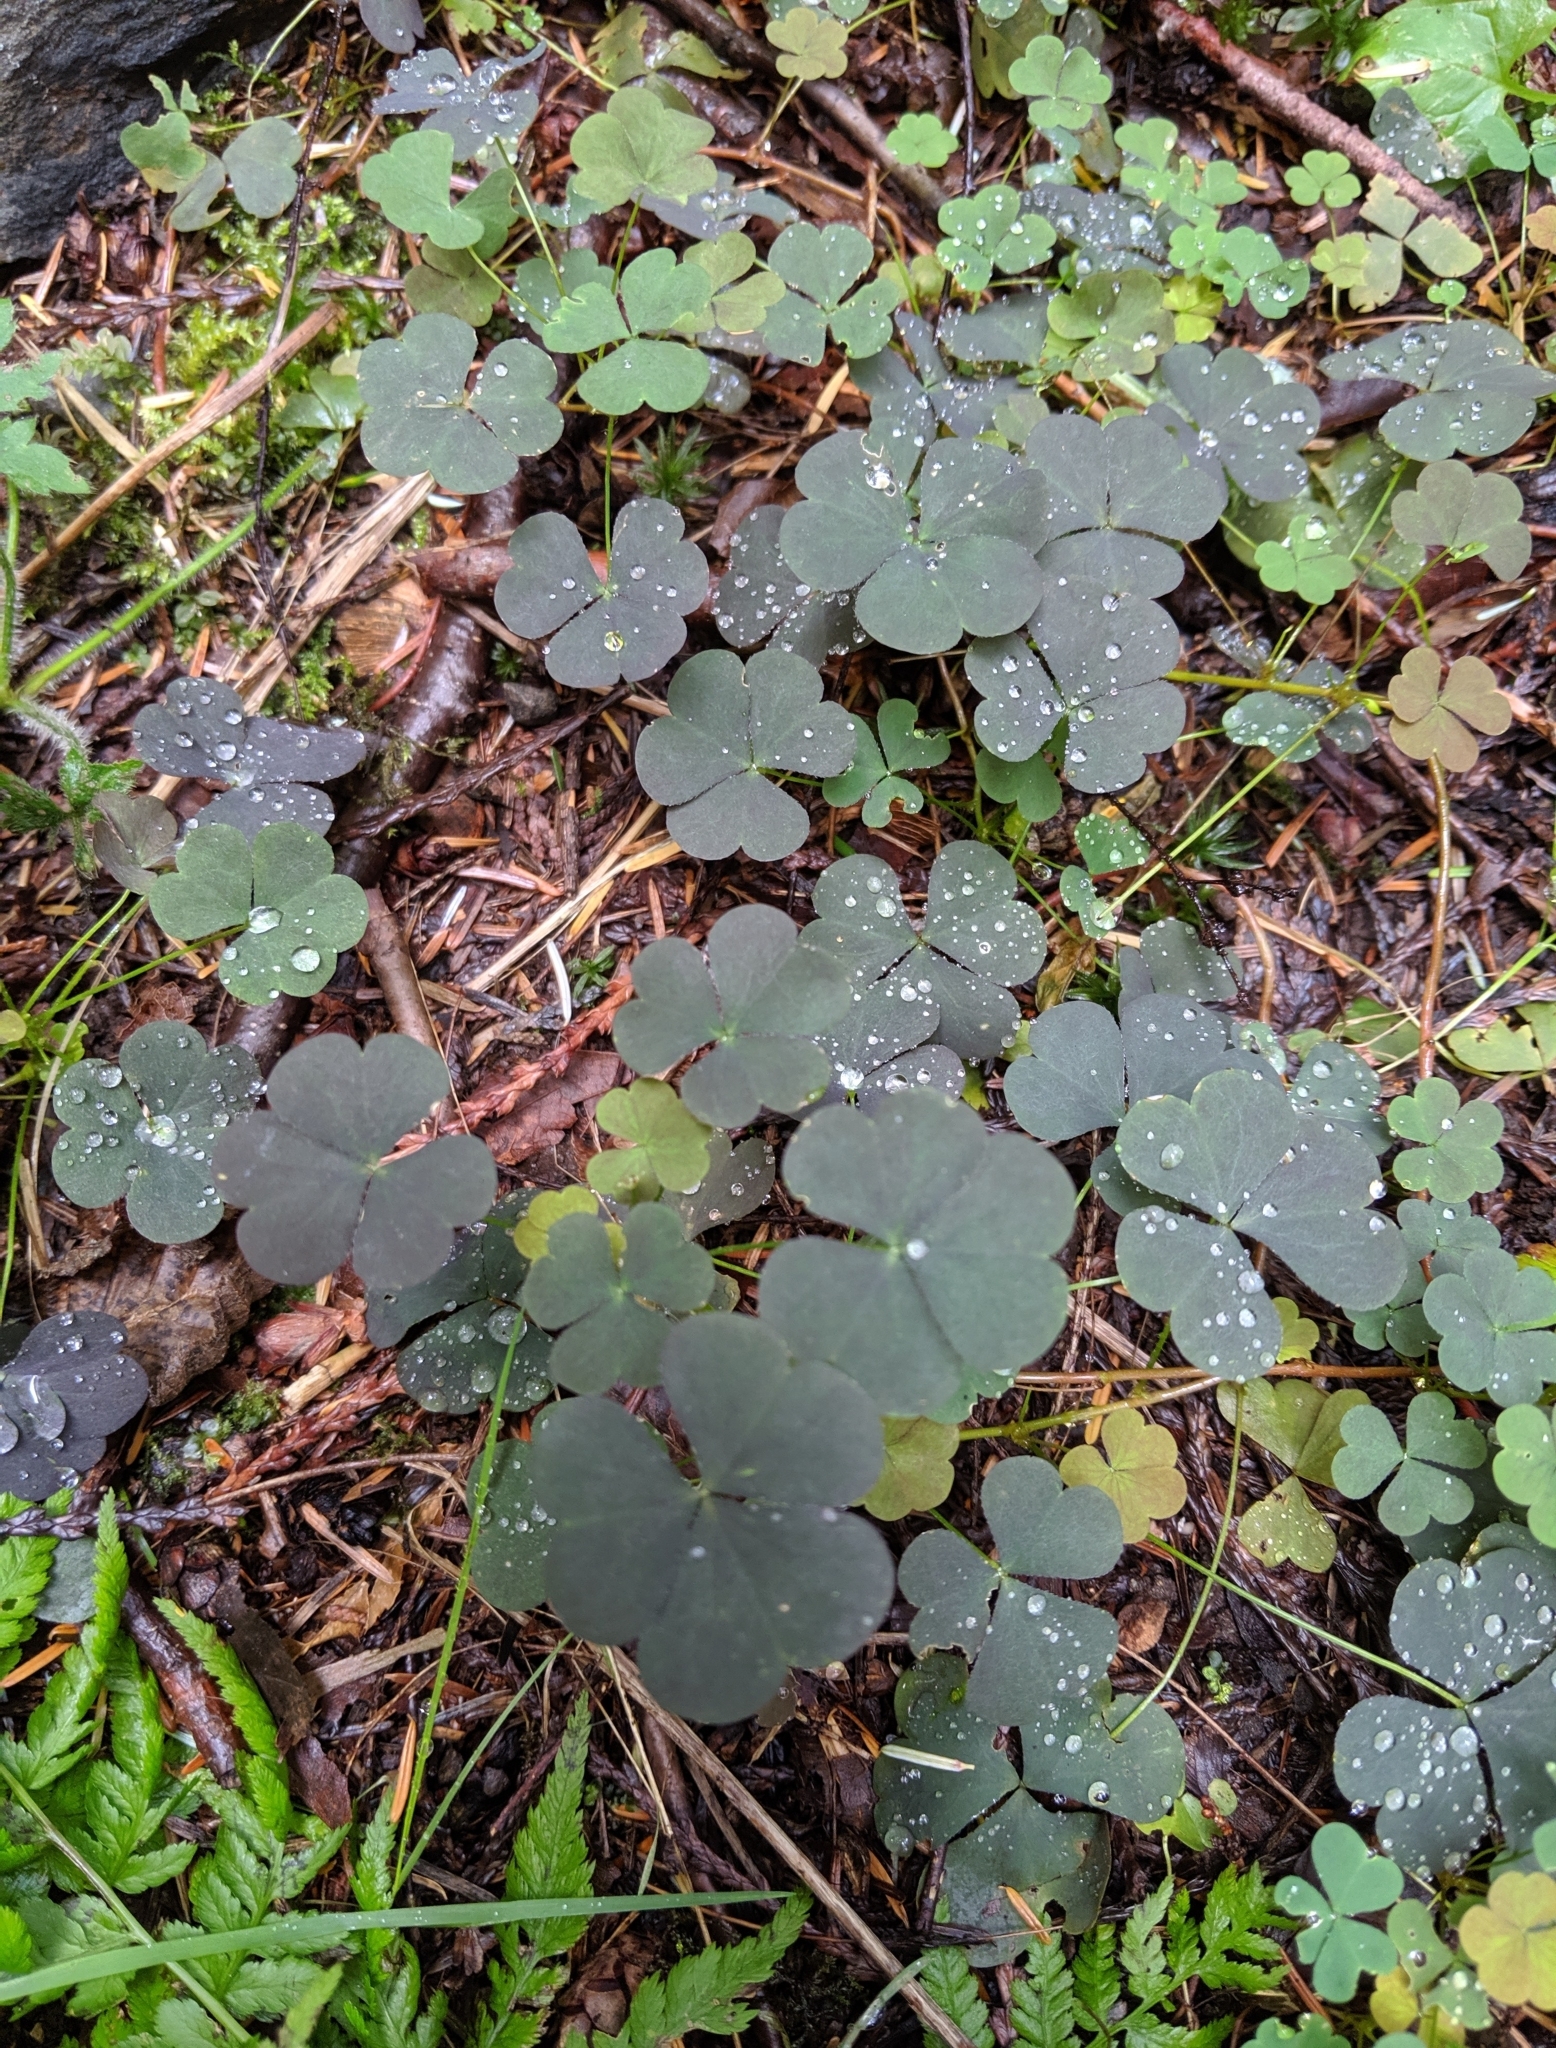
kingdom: Plantae
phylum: Tracheophyta
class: Magnoliopsida
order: Oxalidales
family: Oxalidaceae
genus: Oxalis
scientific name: Oxalis corniculata
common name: Procumbent yellow-sorrel
